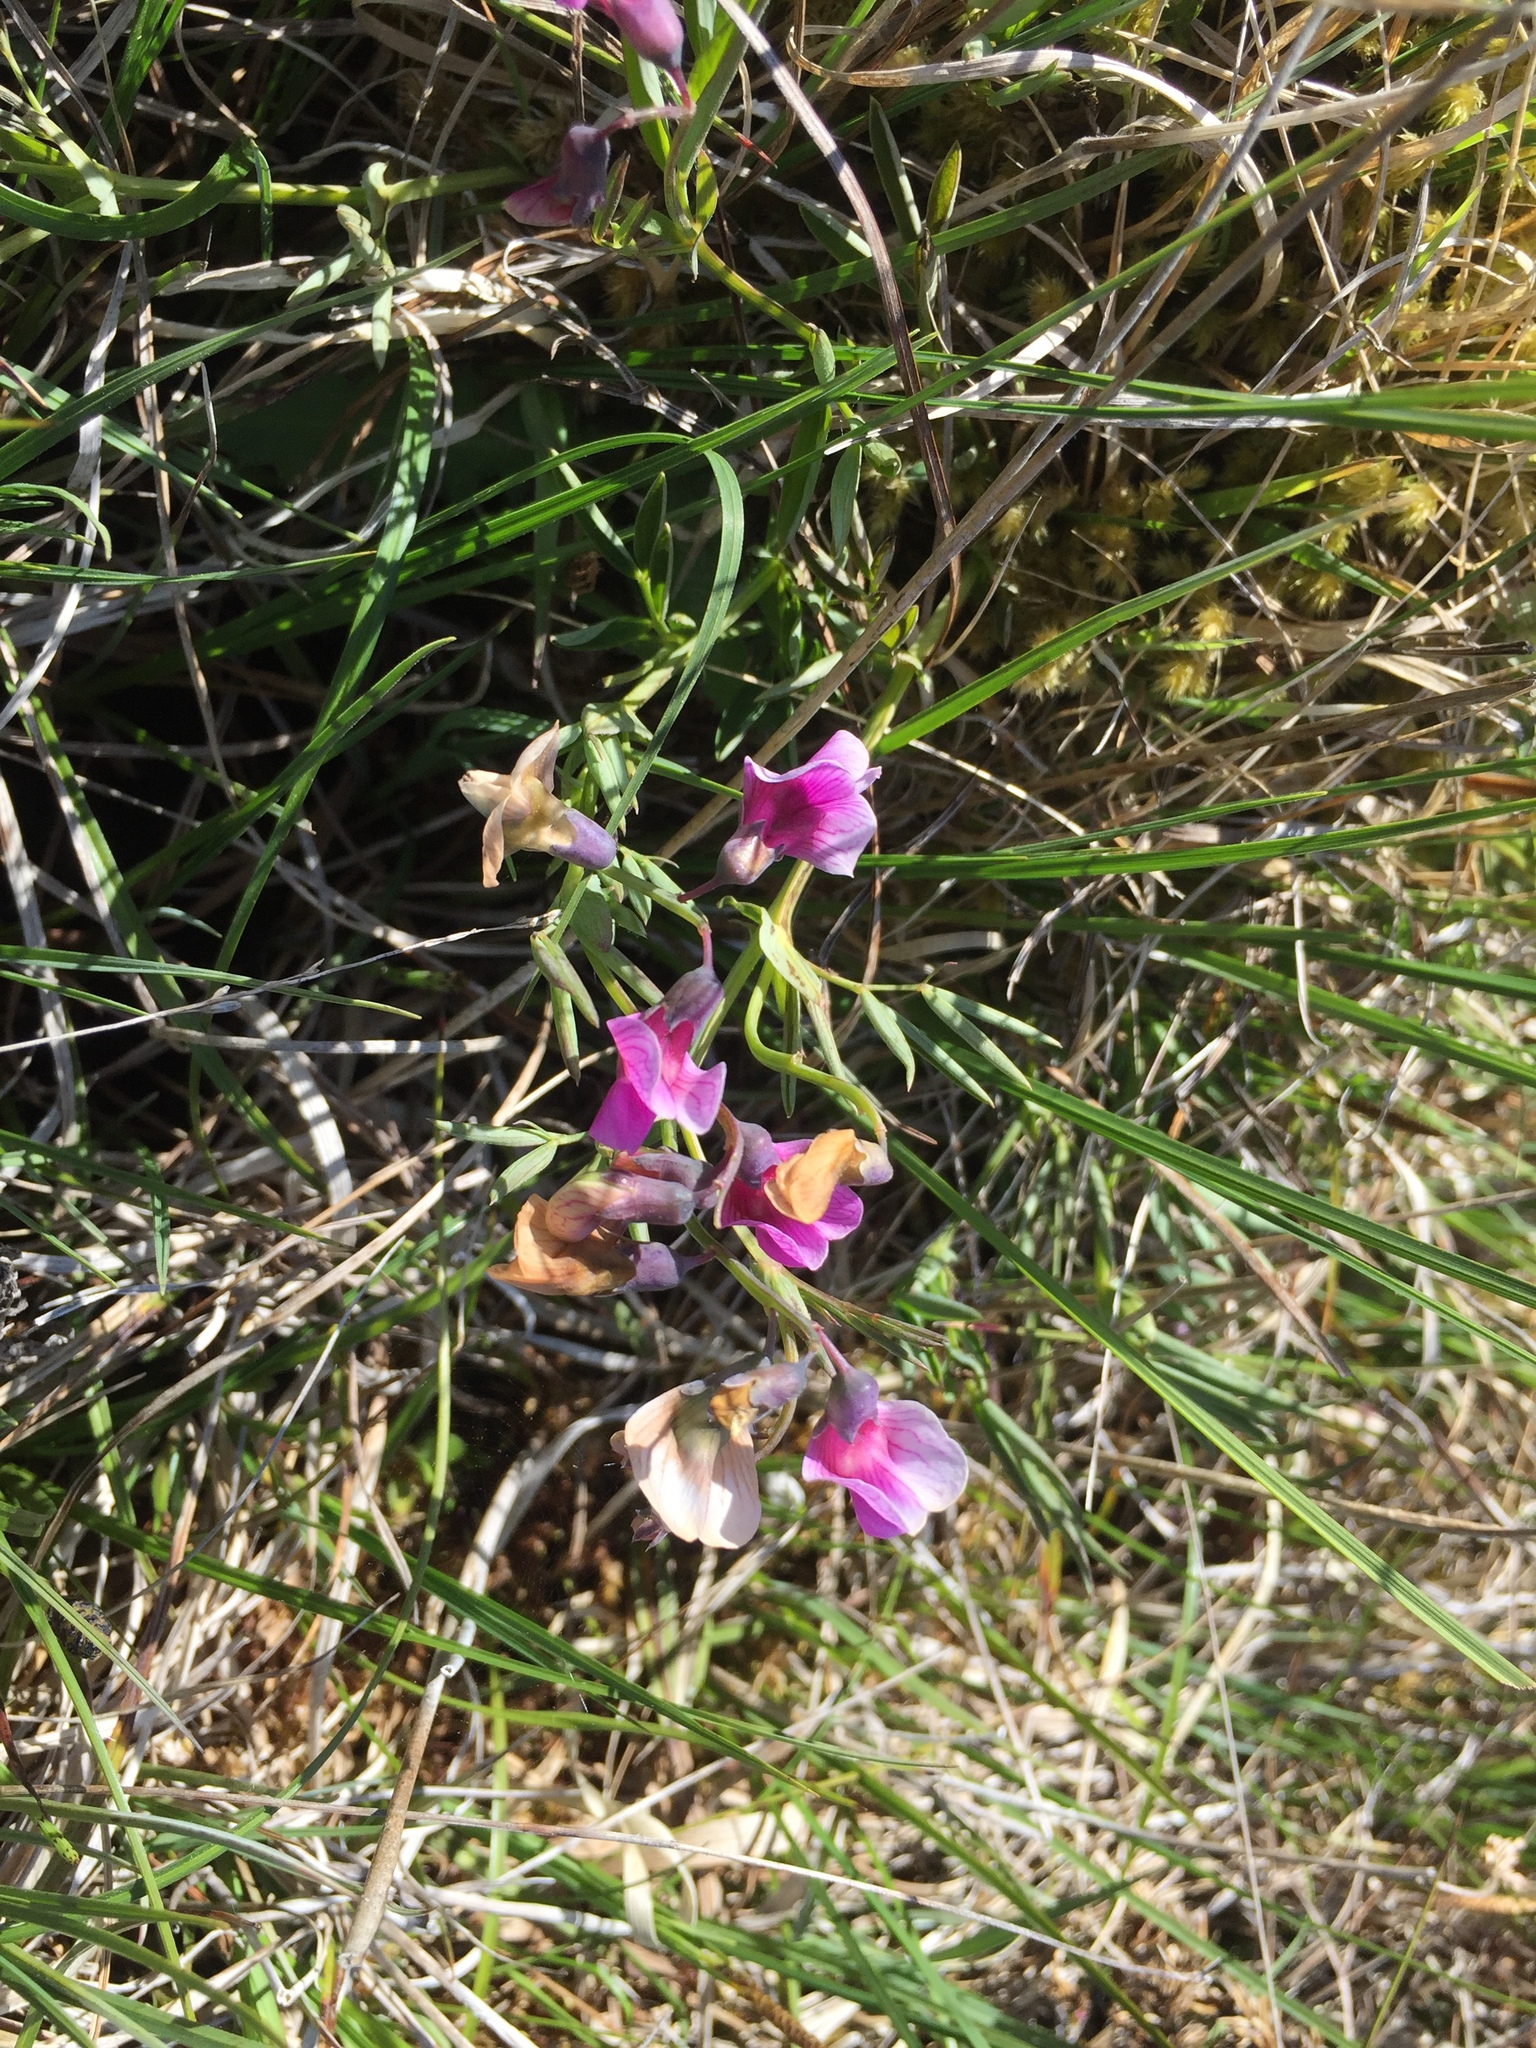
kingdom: Plantae
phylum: Tracheophyta
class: Magnoliopsida
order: Fabales
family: Fabaceae
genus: Lathyrus
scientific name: Lathyrus linifolius
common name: Bitter-vetch
